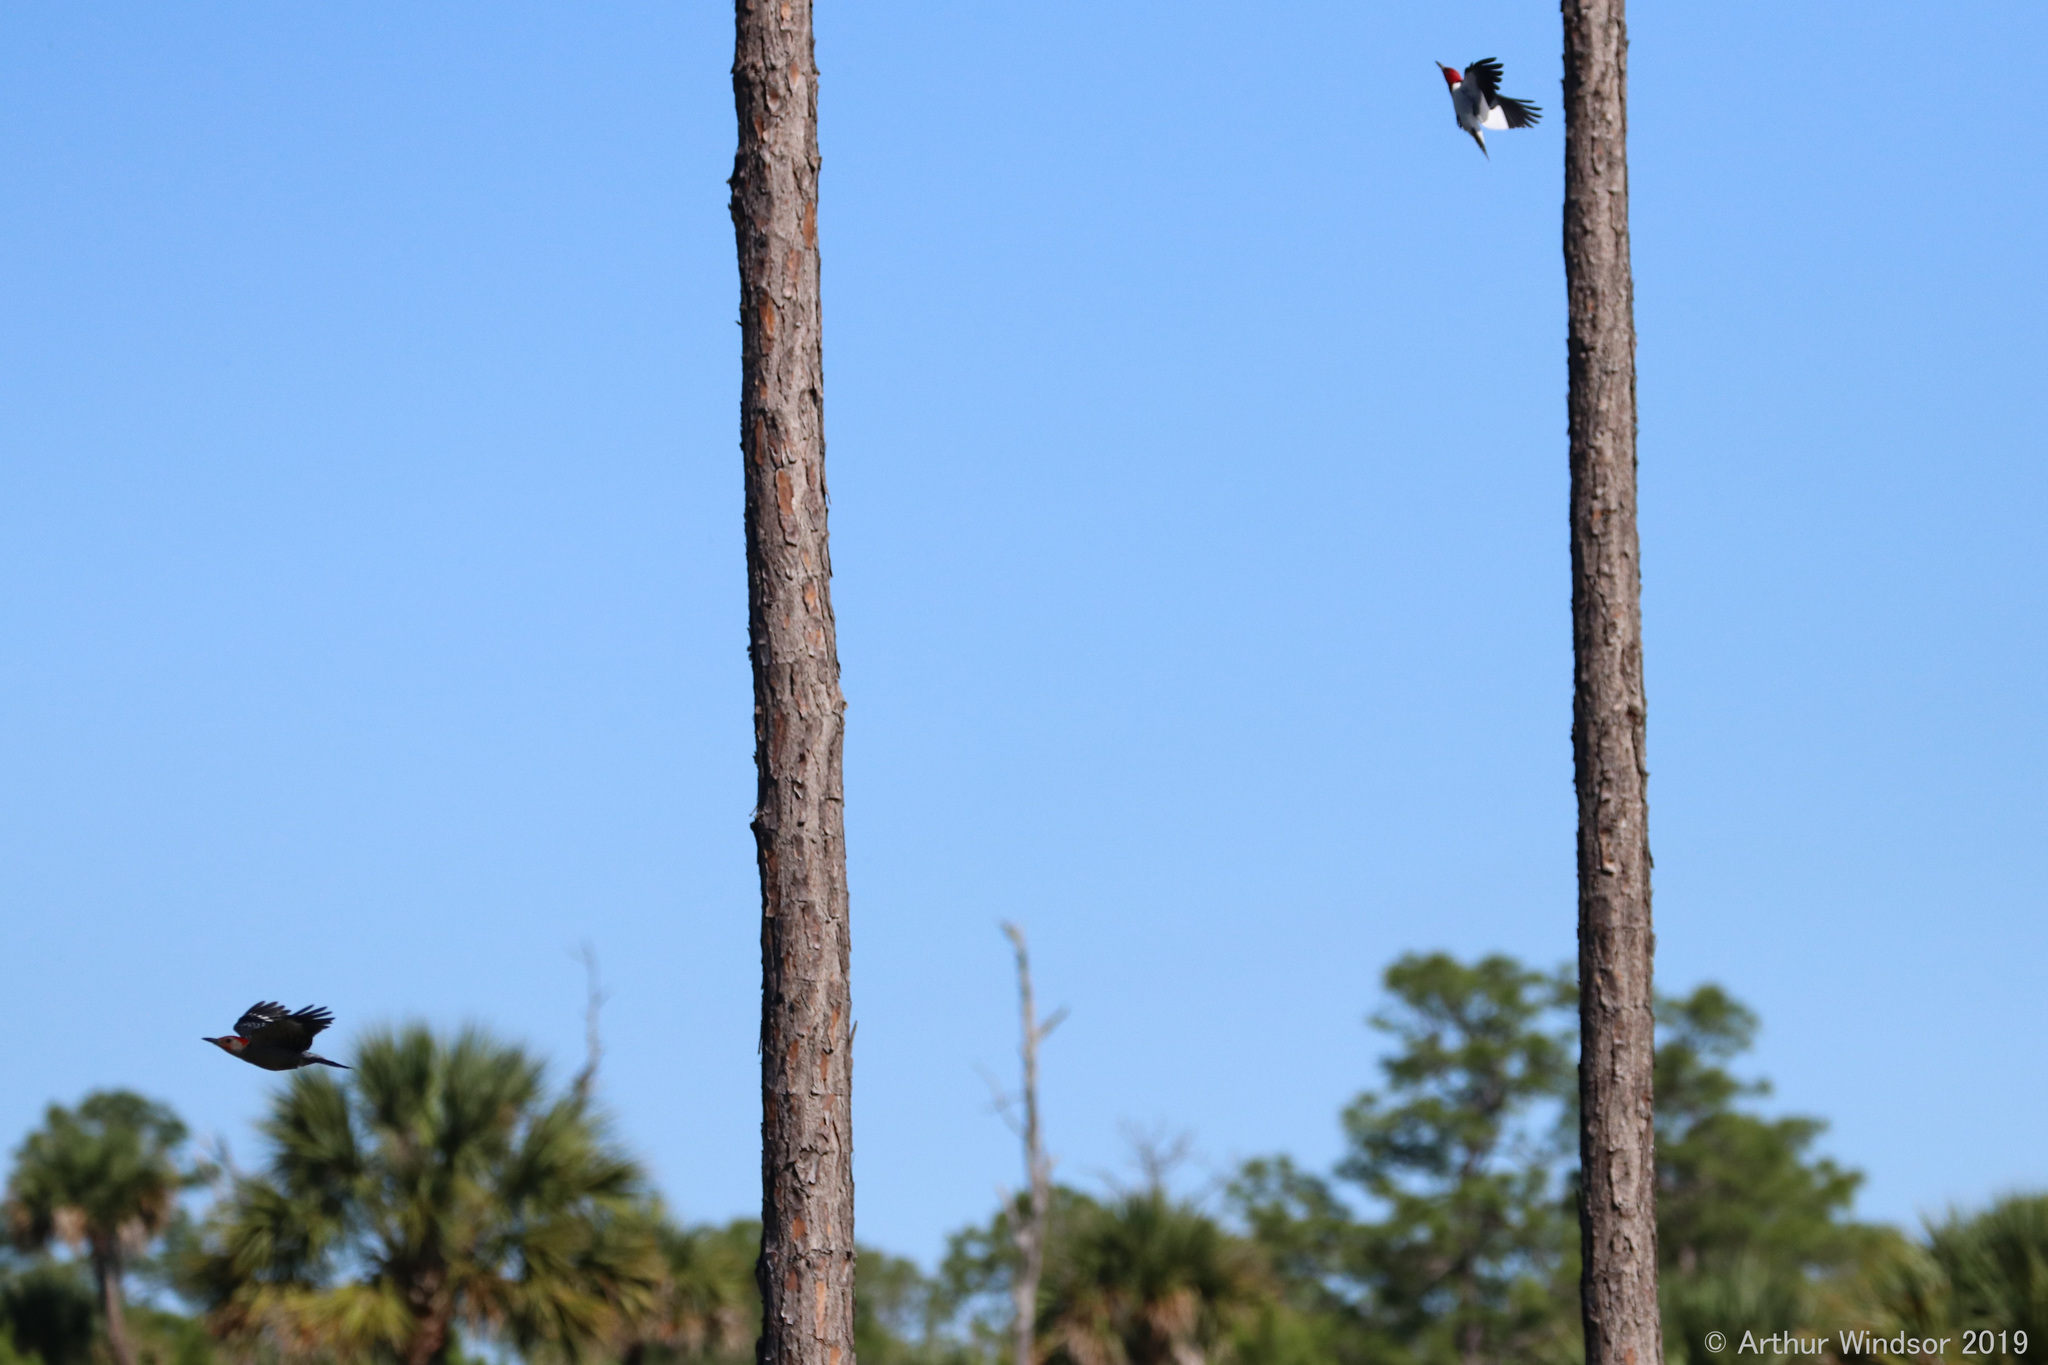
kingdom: Animalia
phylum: Chordata
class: Aves
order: Piciformes
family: Picidae
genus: Melanerpes
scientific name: Melanerpes erythrocephalus
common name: Red-headed woodpecker
